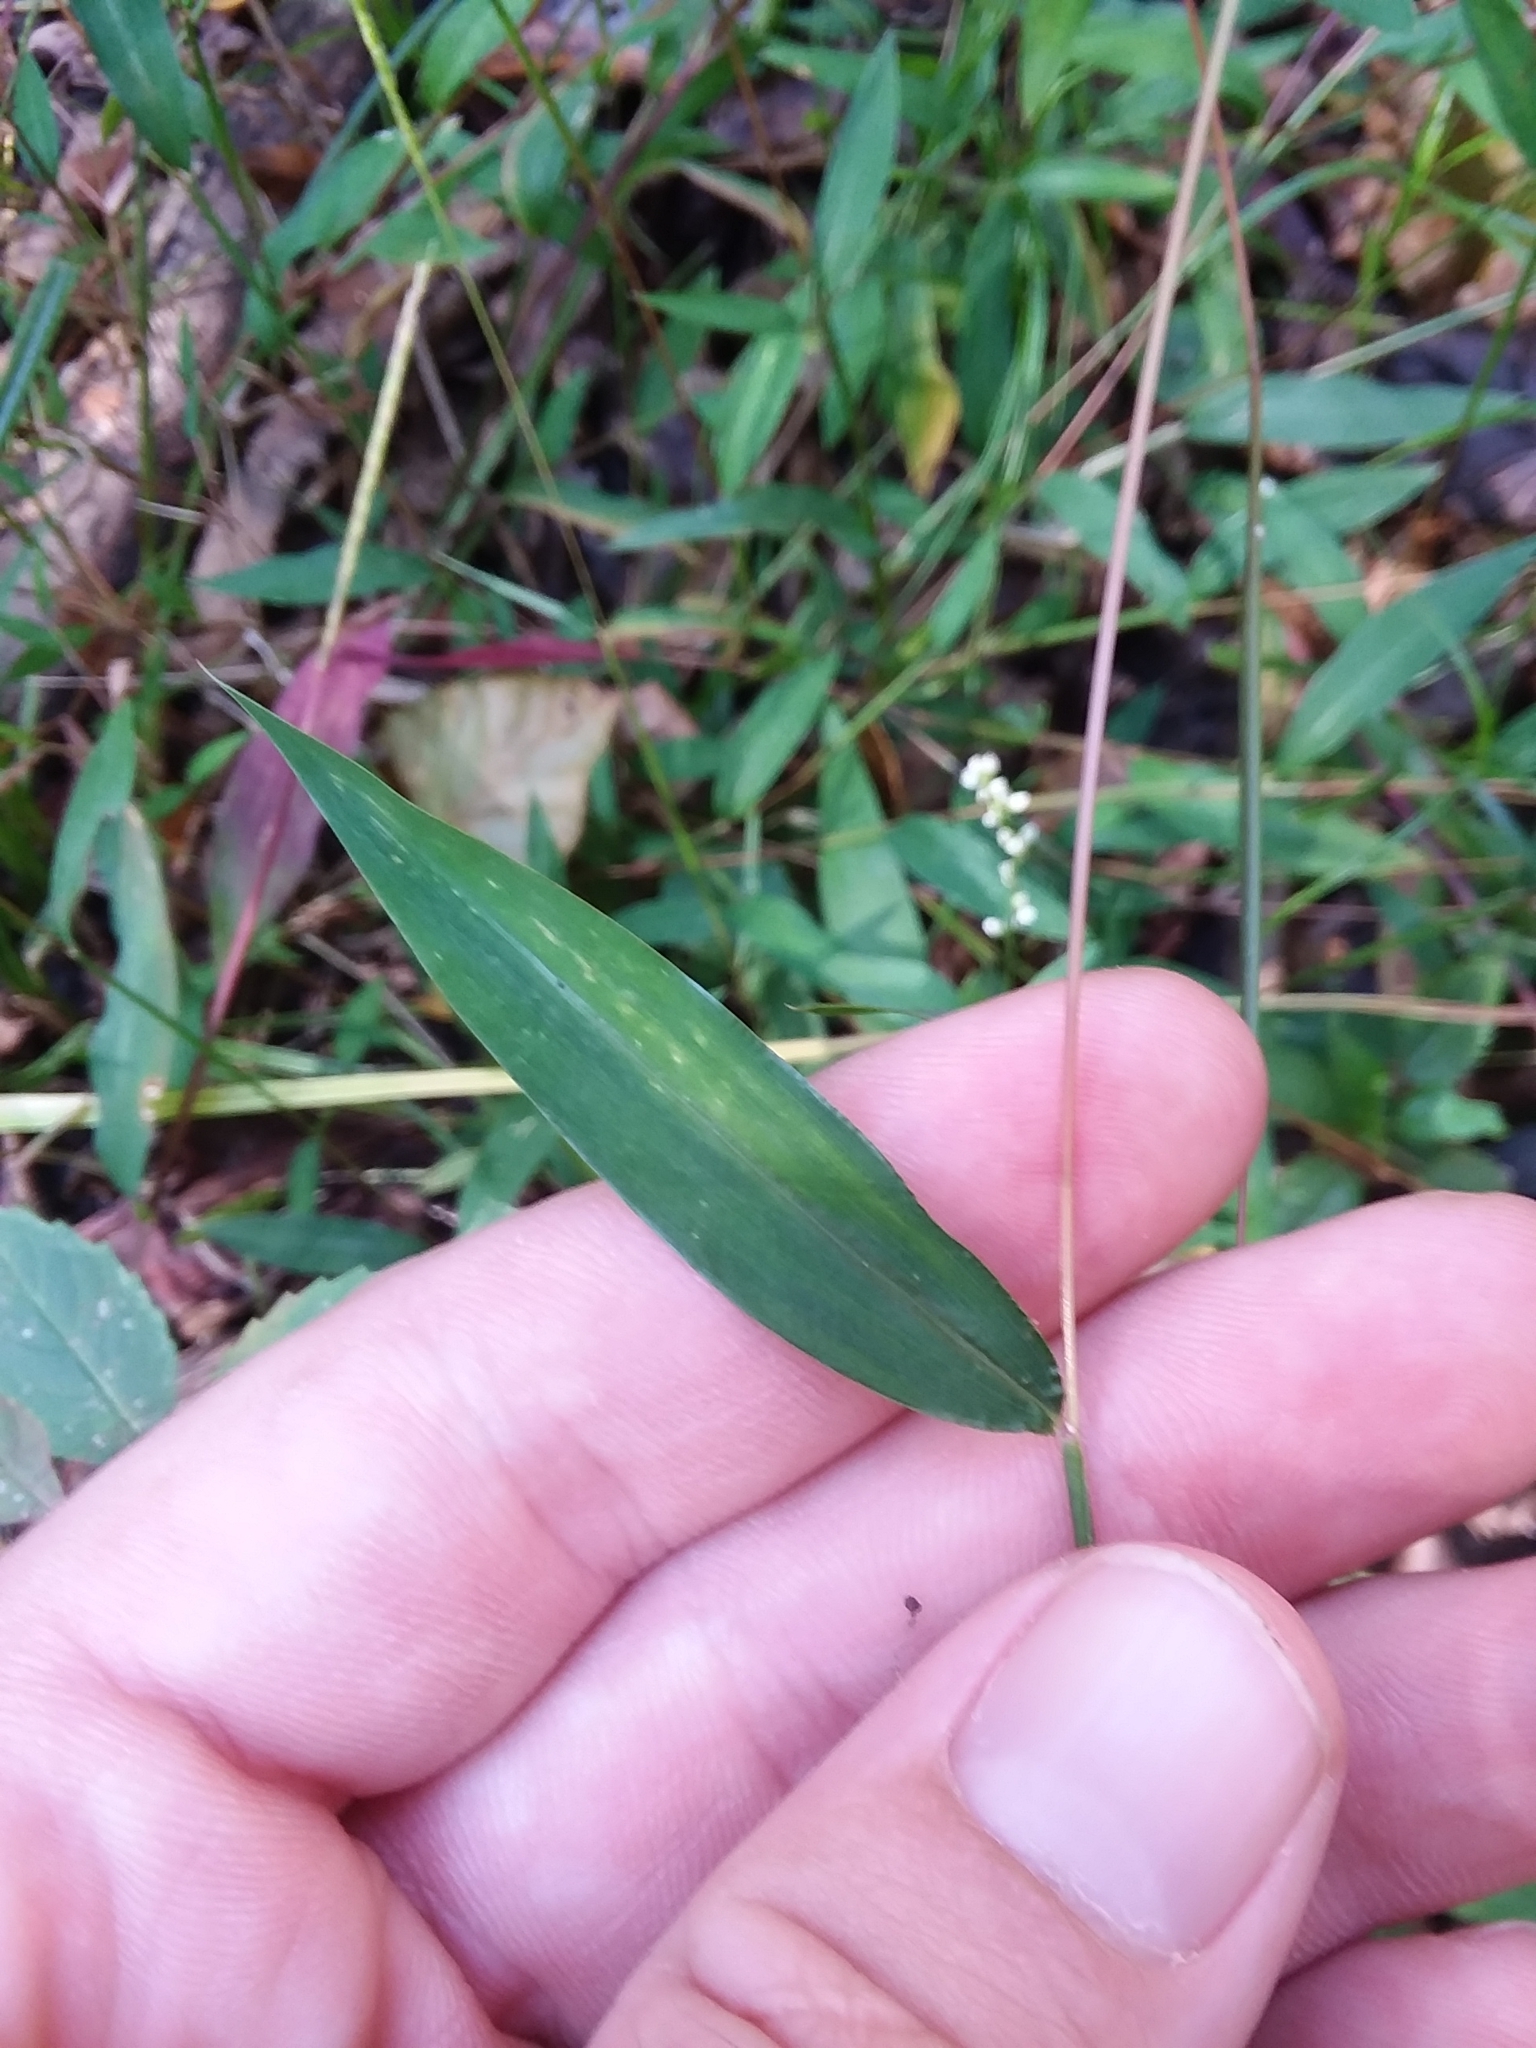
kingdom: Plantae
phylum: Tracheophyta
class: Liliopsida
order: Poales
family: Poaceae
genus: Microstegium
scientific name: Microstegium vimineum
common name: Japanese stiltgrass
